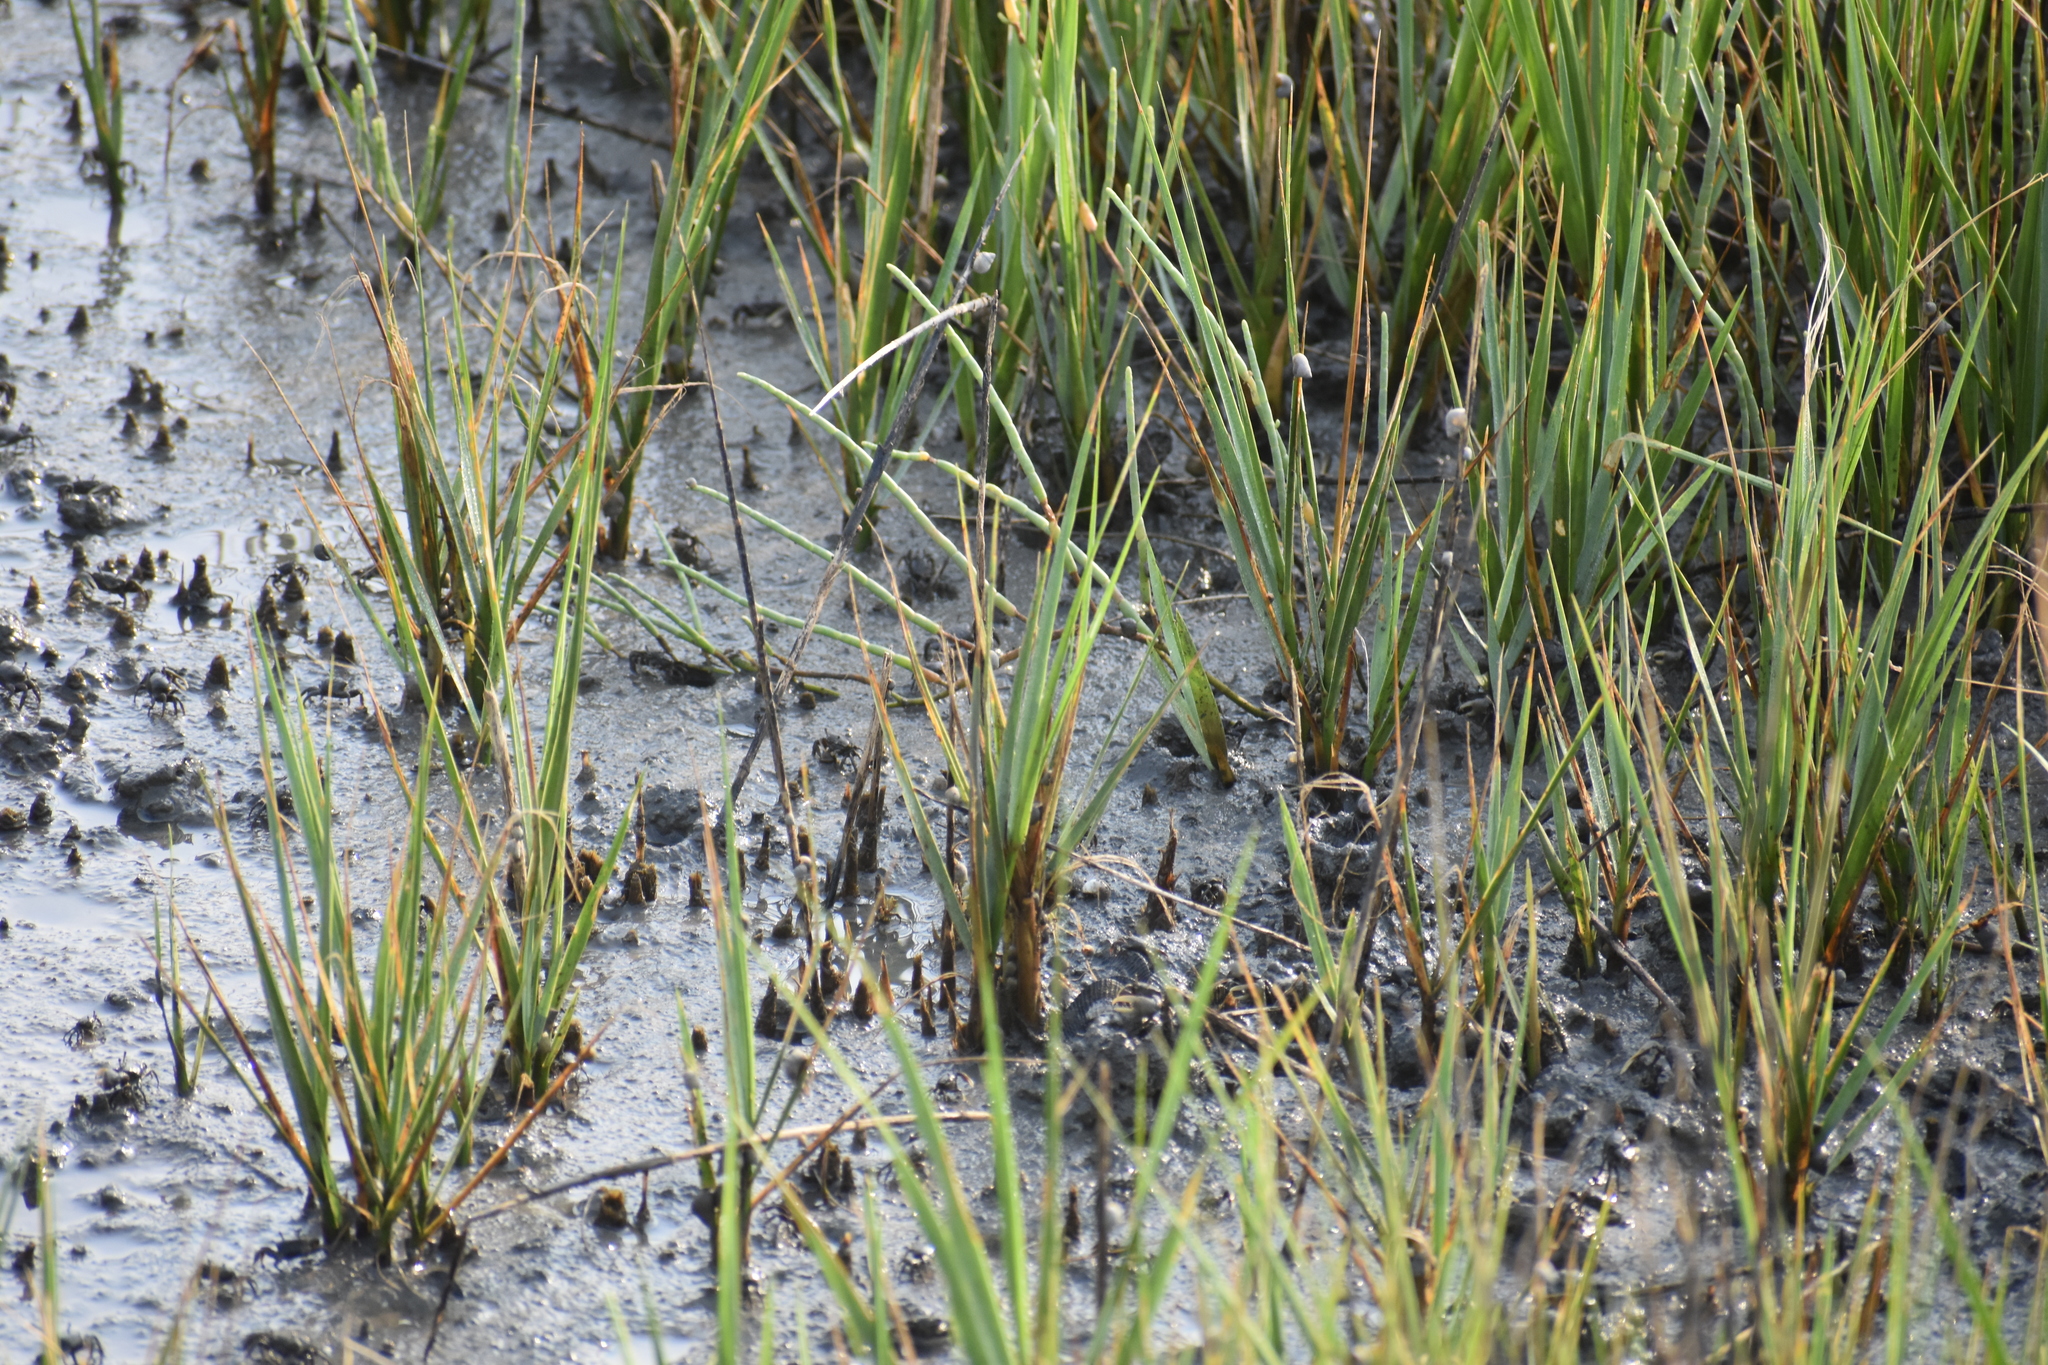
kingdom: Plantae
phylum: Tracheophyta
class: Liliopsida
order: Poales
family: Poaceae
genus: Sporobolus
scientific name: Sporobolus alterniflorus
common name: Atlantic cordgrass
